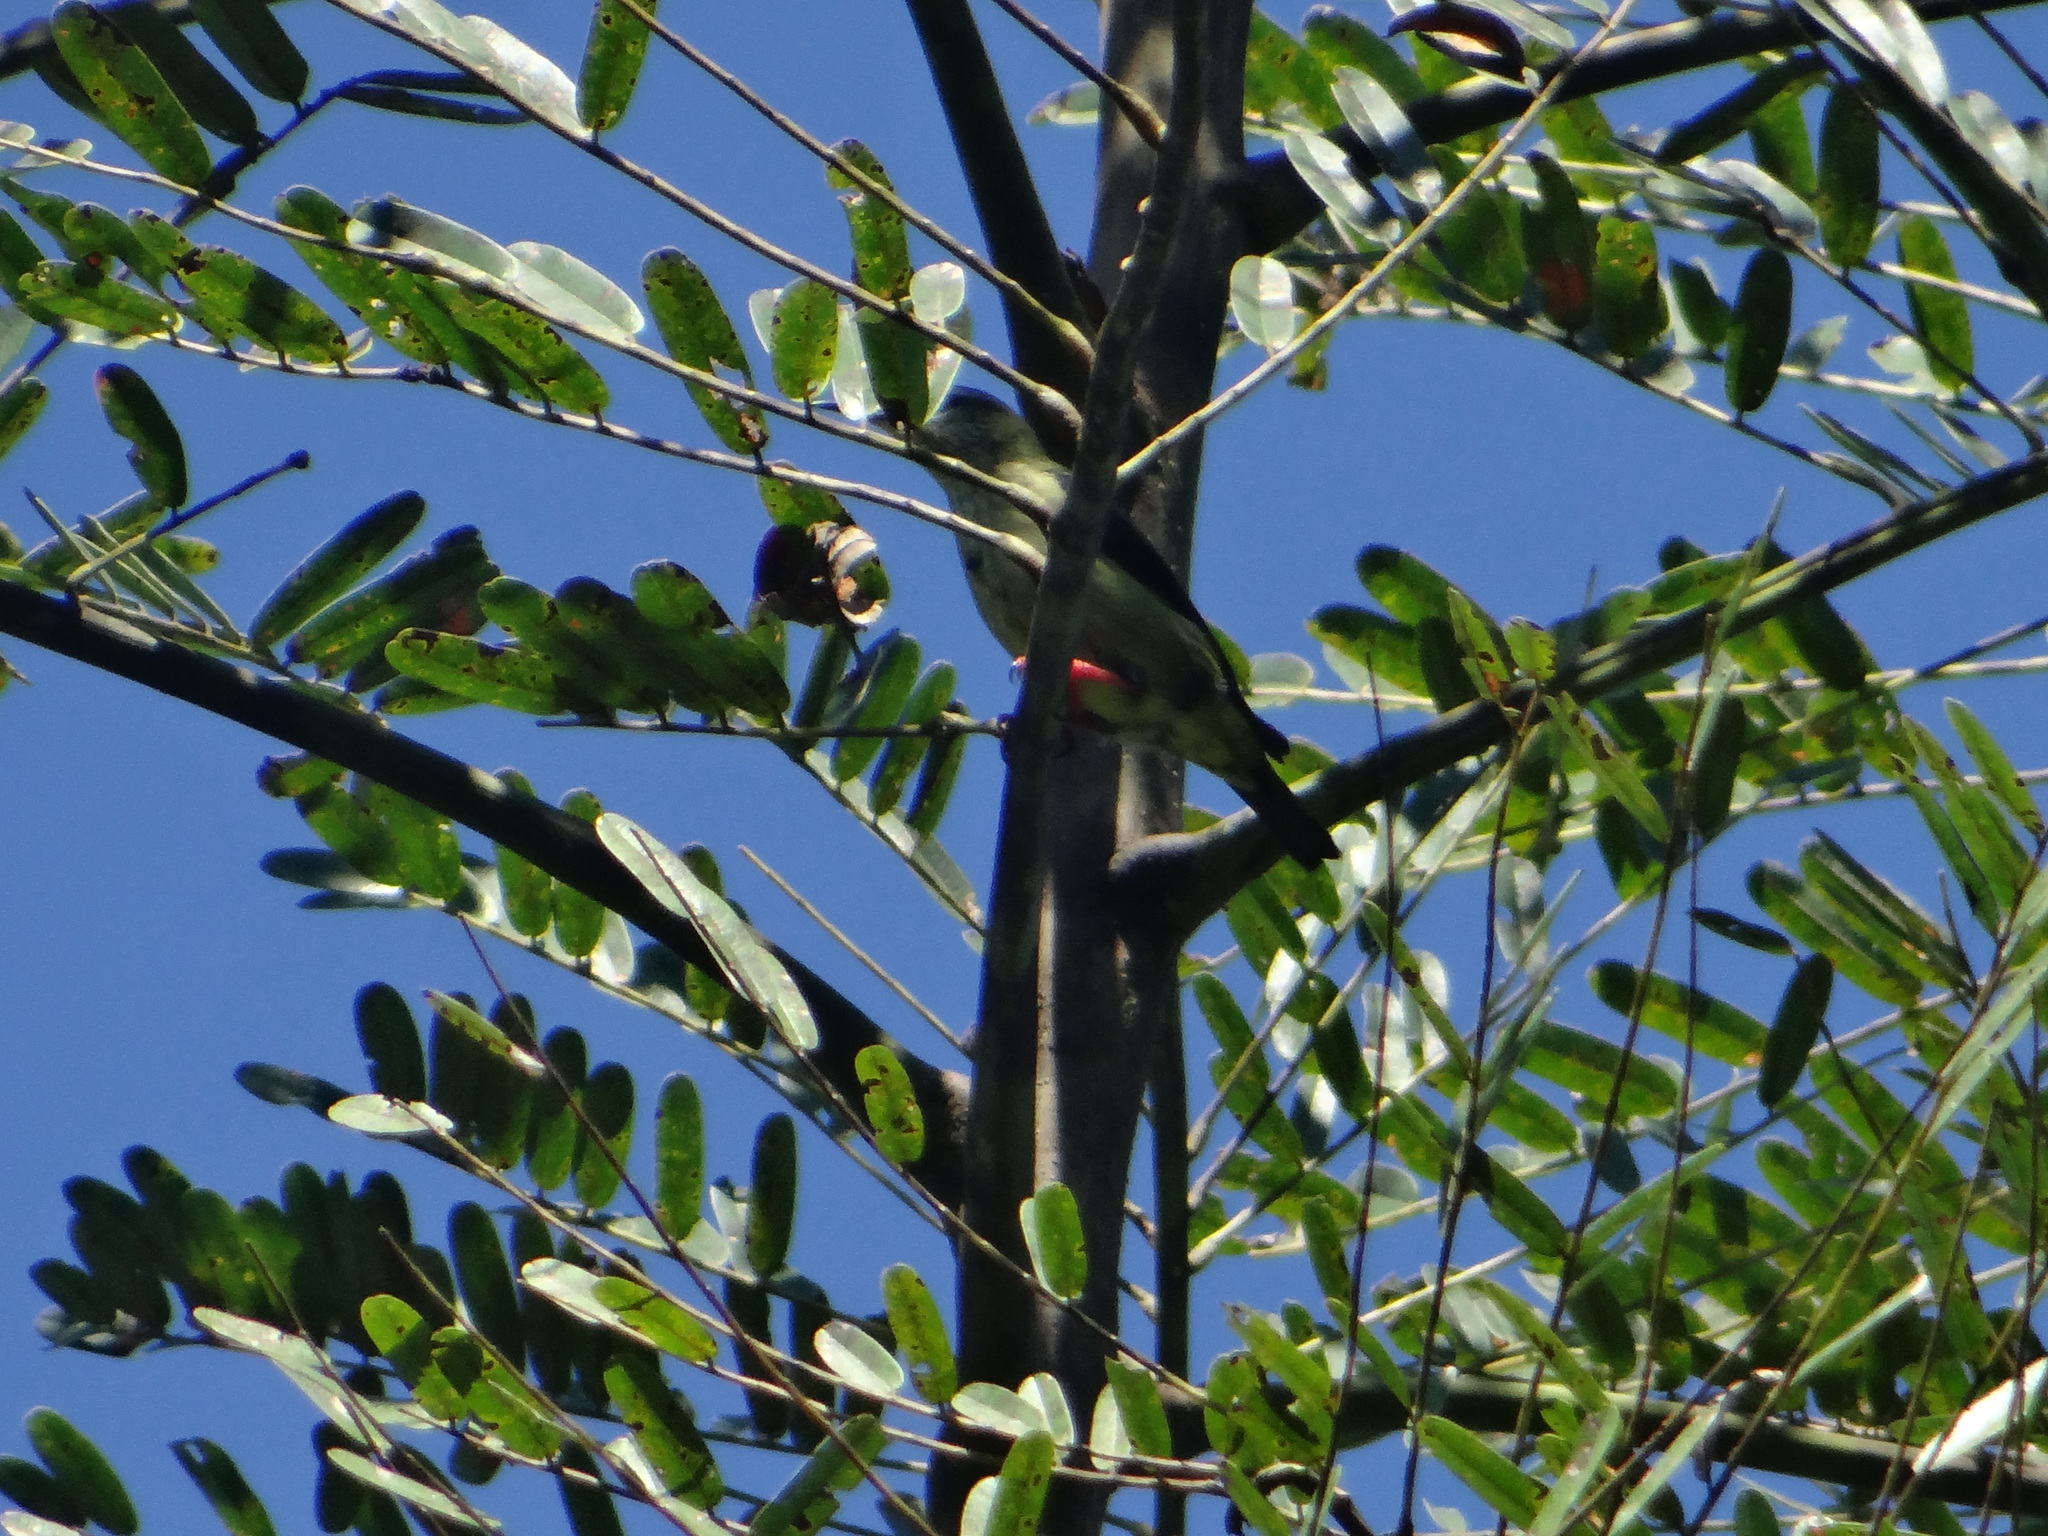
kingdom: Animalia
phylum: Chordata
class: Aves
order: Passeriformes
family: Thraupidae
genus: Cyanerpes
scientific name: Cyanerpes cyaneus
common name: Red-legged honeycreeper
